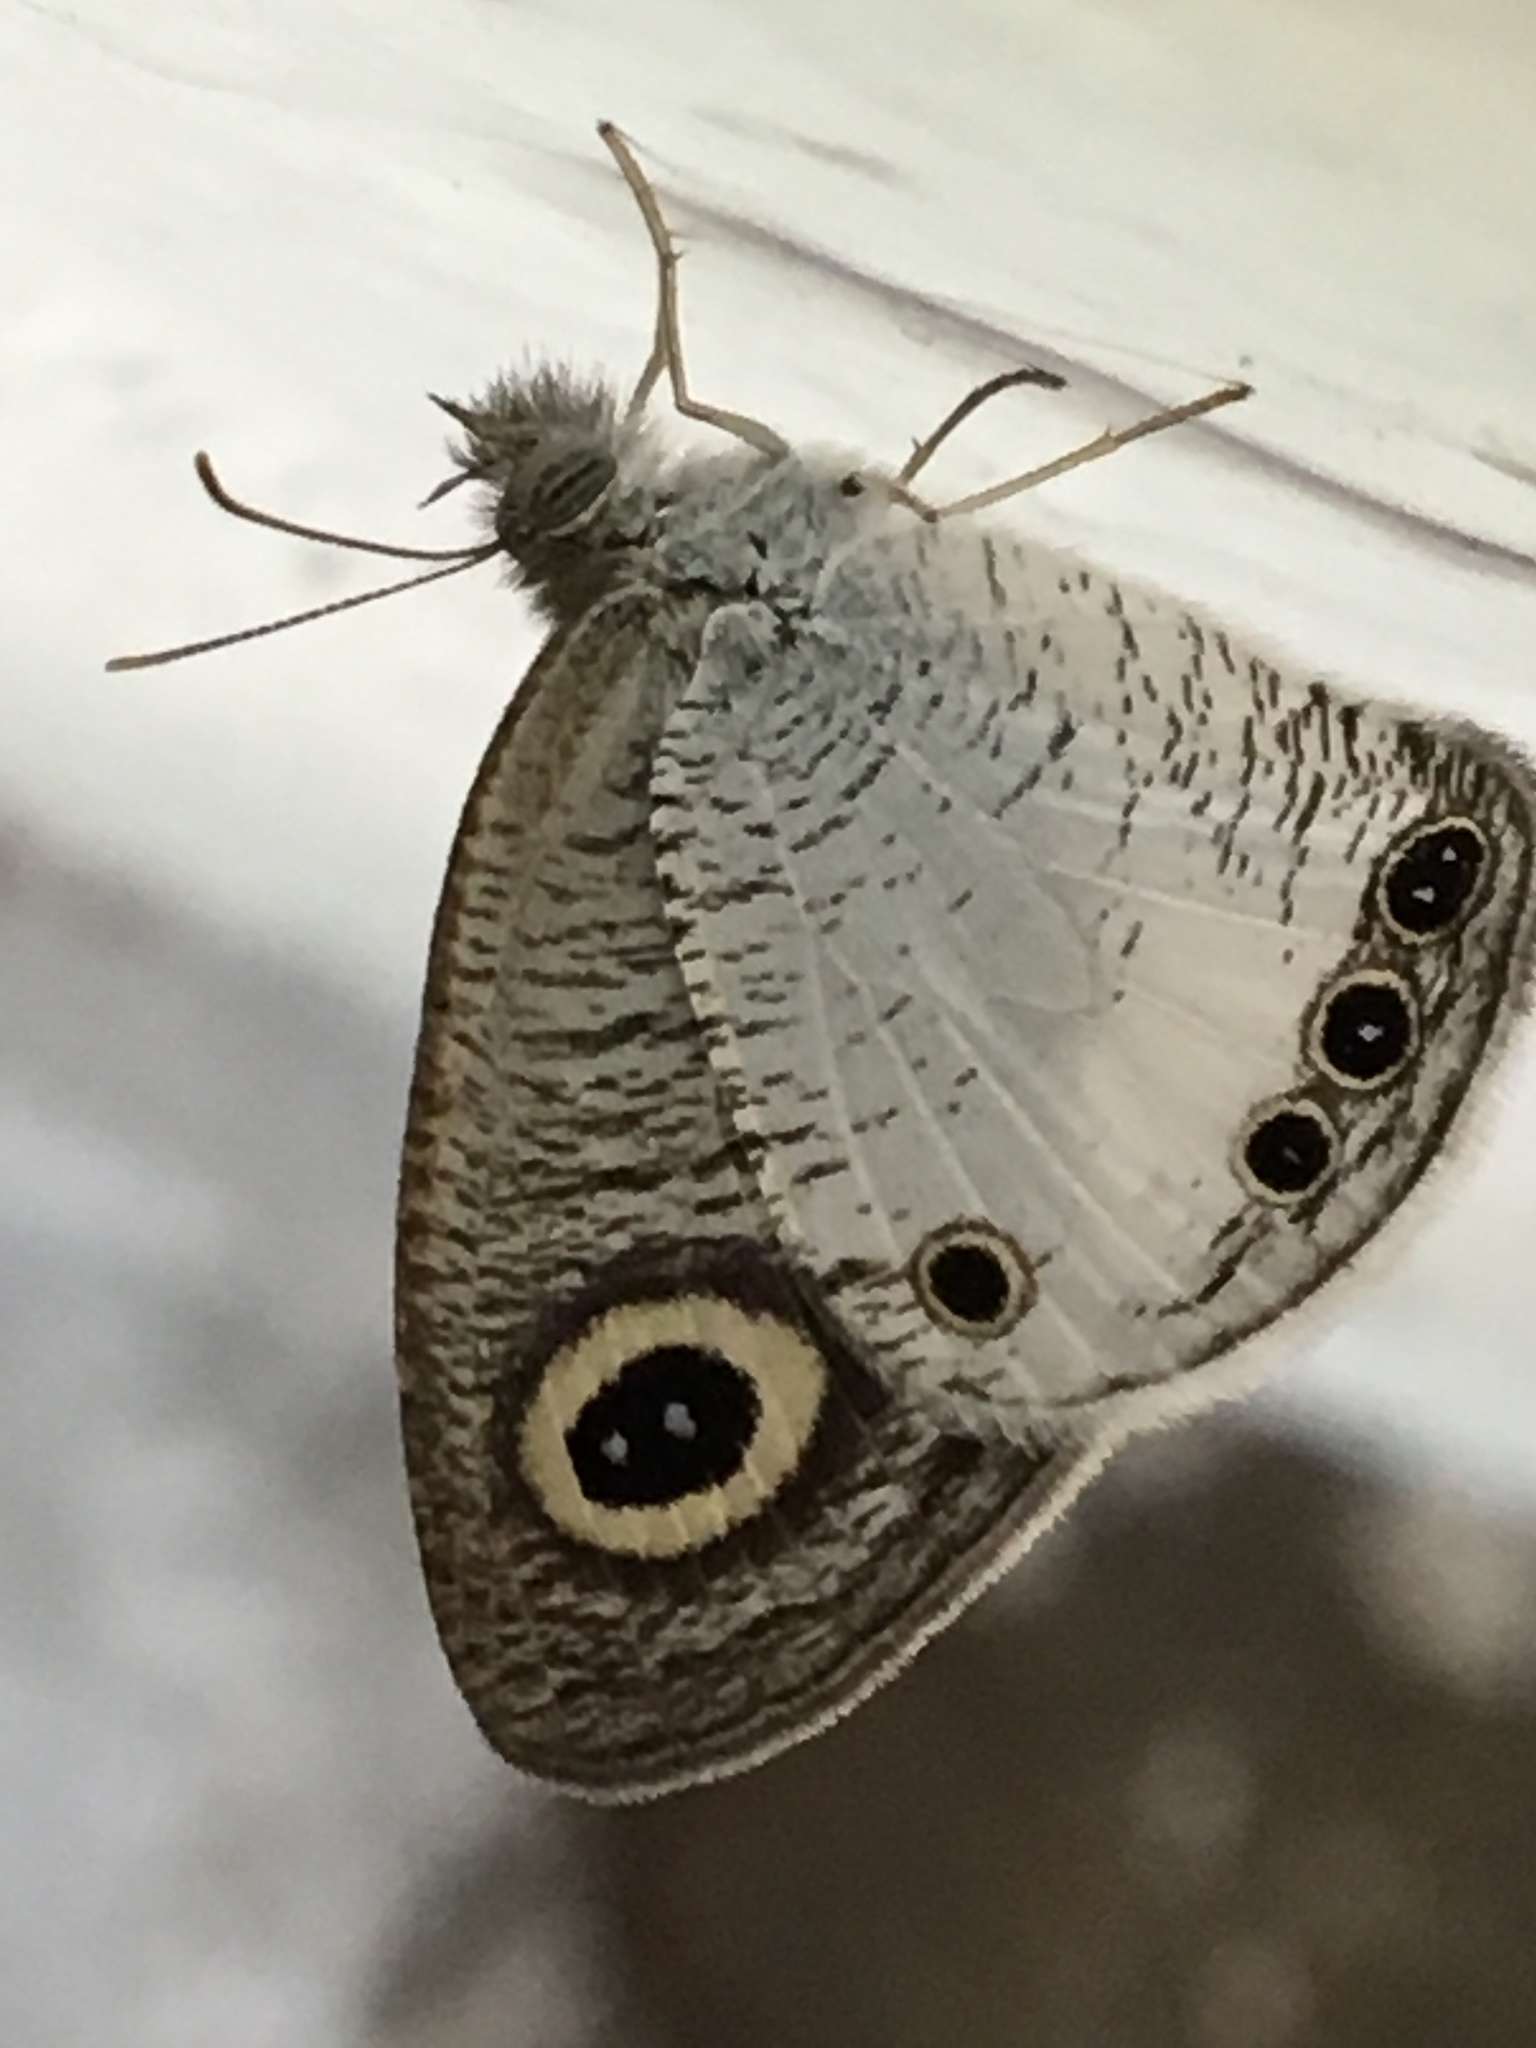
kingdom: Animalia
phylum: Arthropoda
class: Insecta
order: Lepidoptera
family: Nymphalidae
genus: Ypthima
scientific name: Ypthima ceylonica
